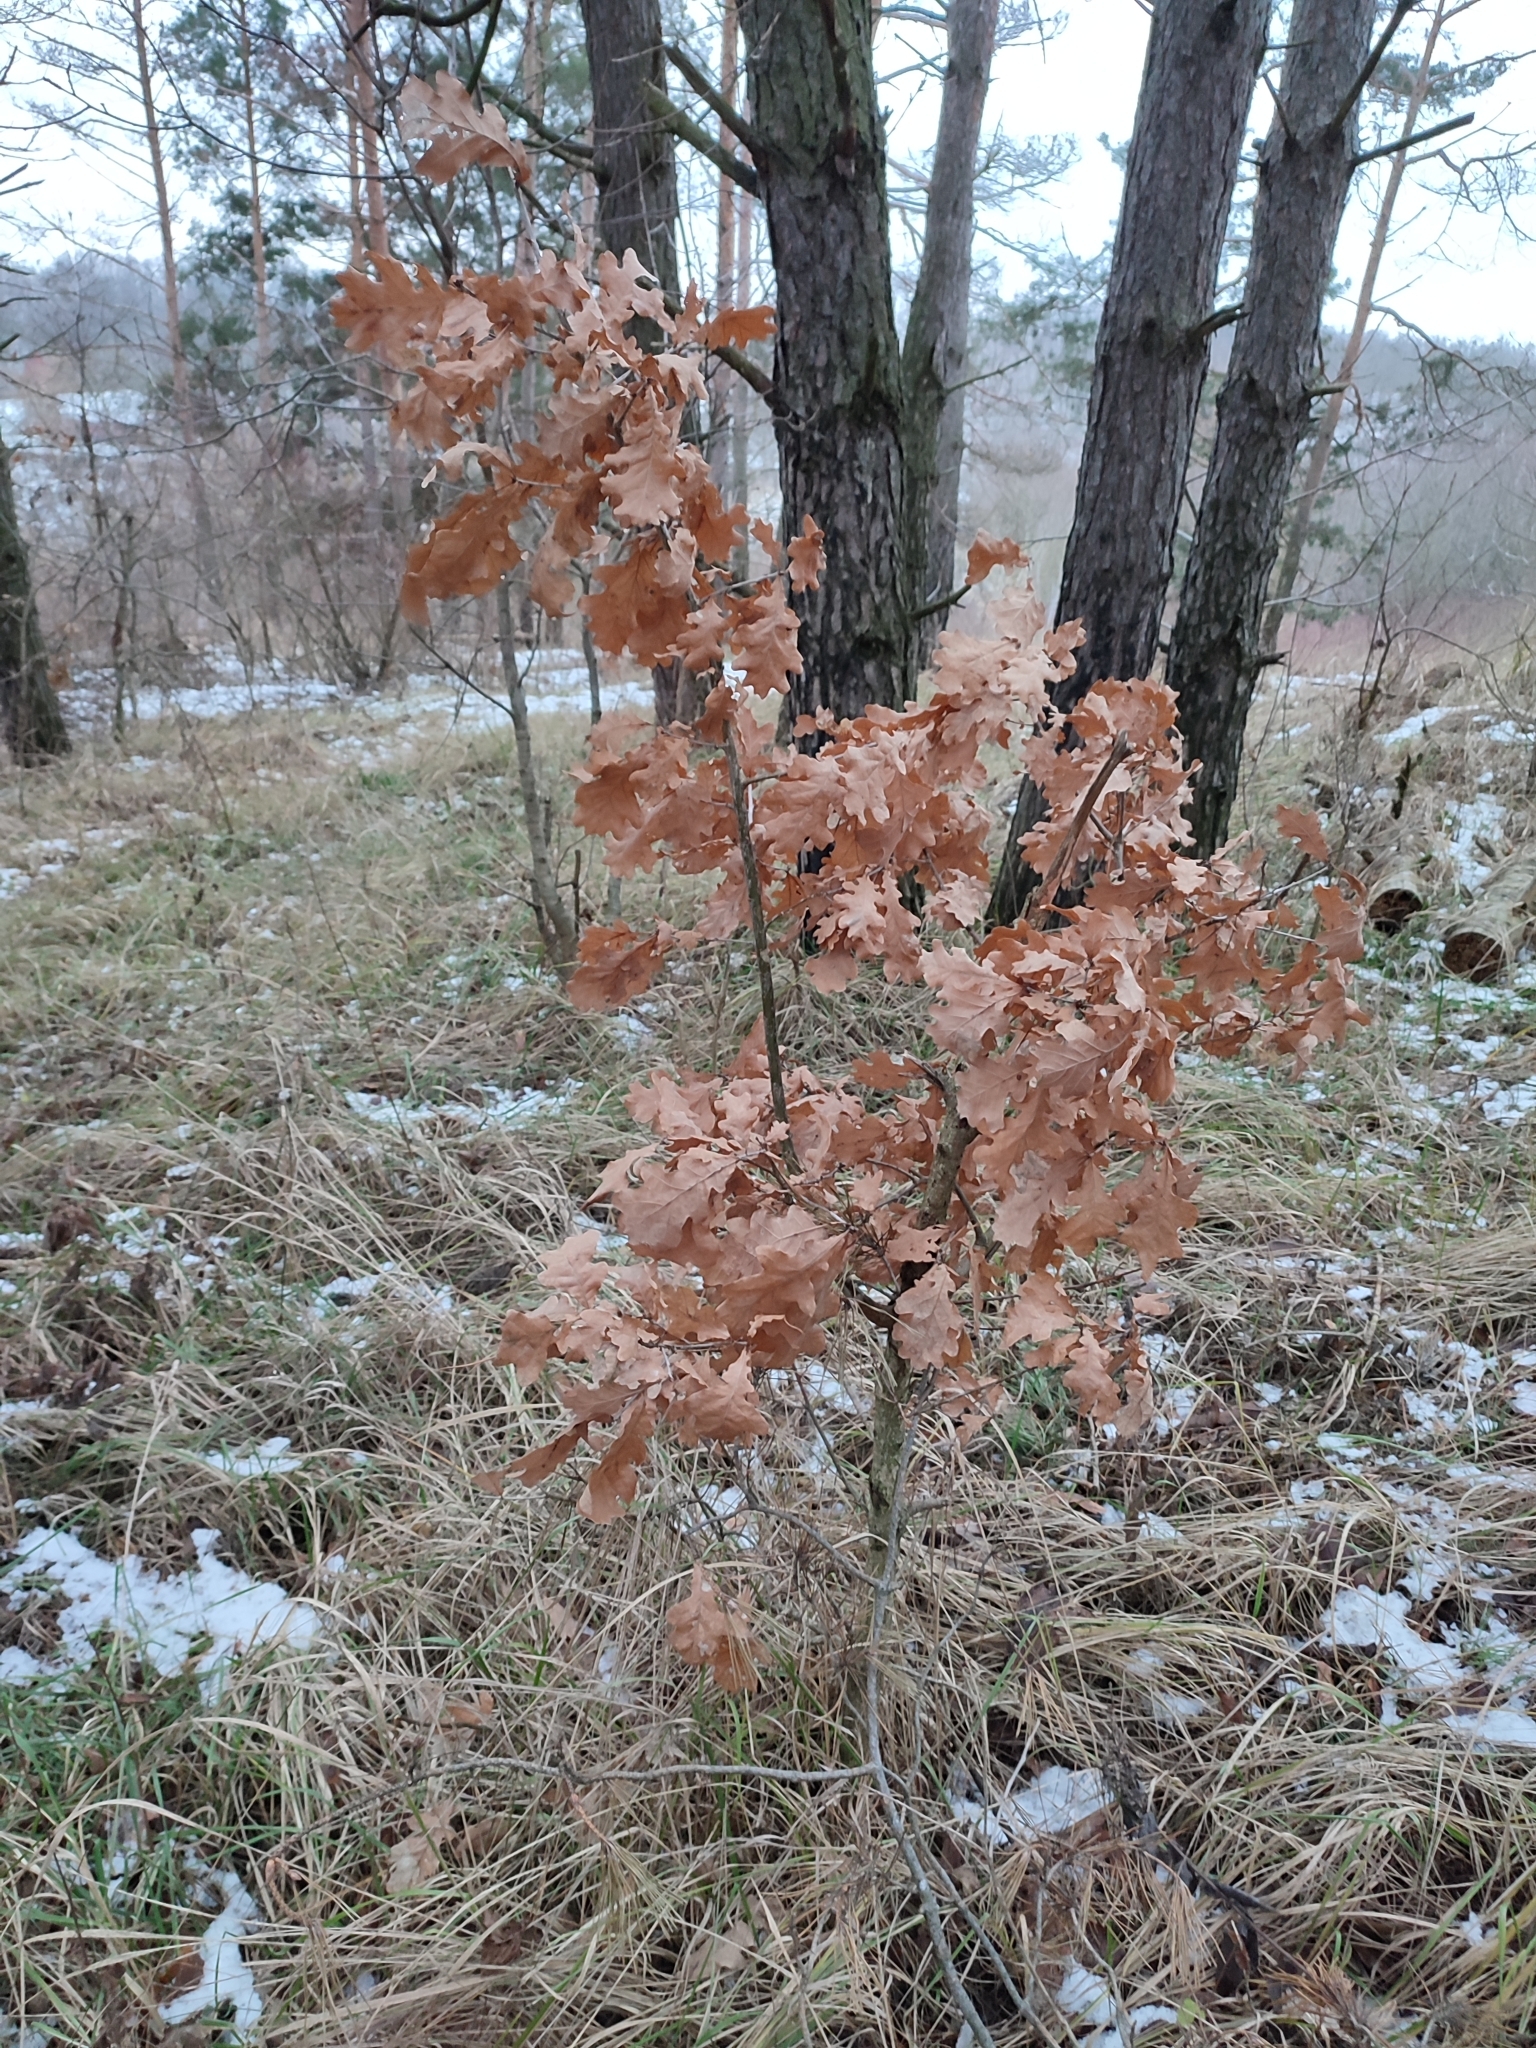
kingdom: Plantae
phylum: Tracheophyta
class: Magnoliopsida
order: Fagales
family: Fagaceae
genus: Quercus
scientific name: Quercus robur
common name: Pedunculate oak
